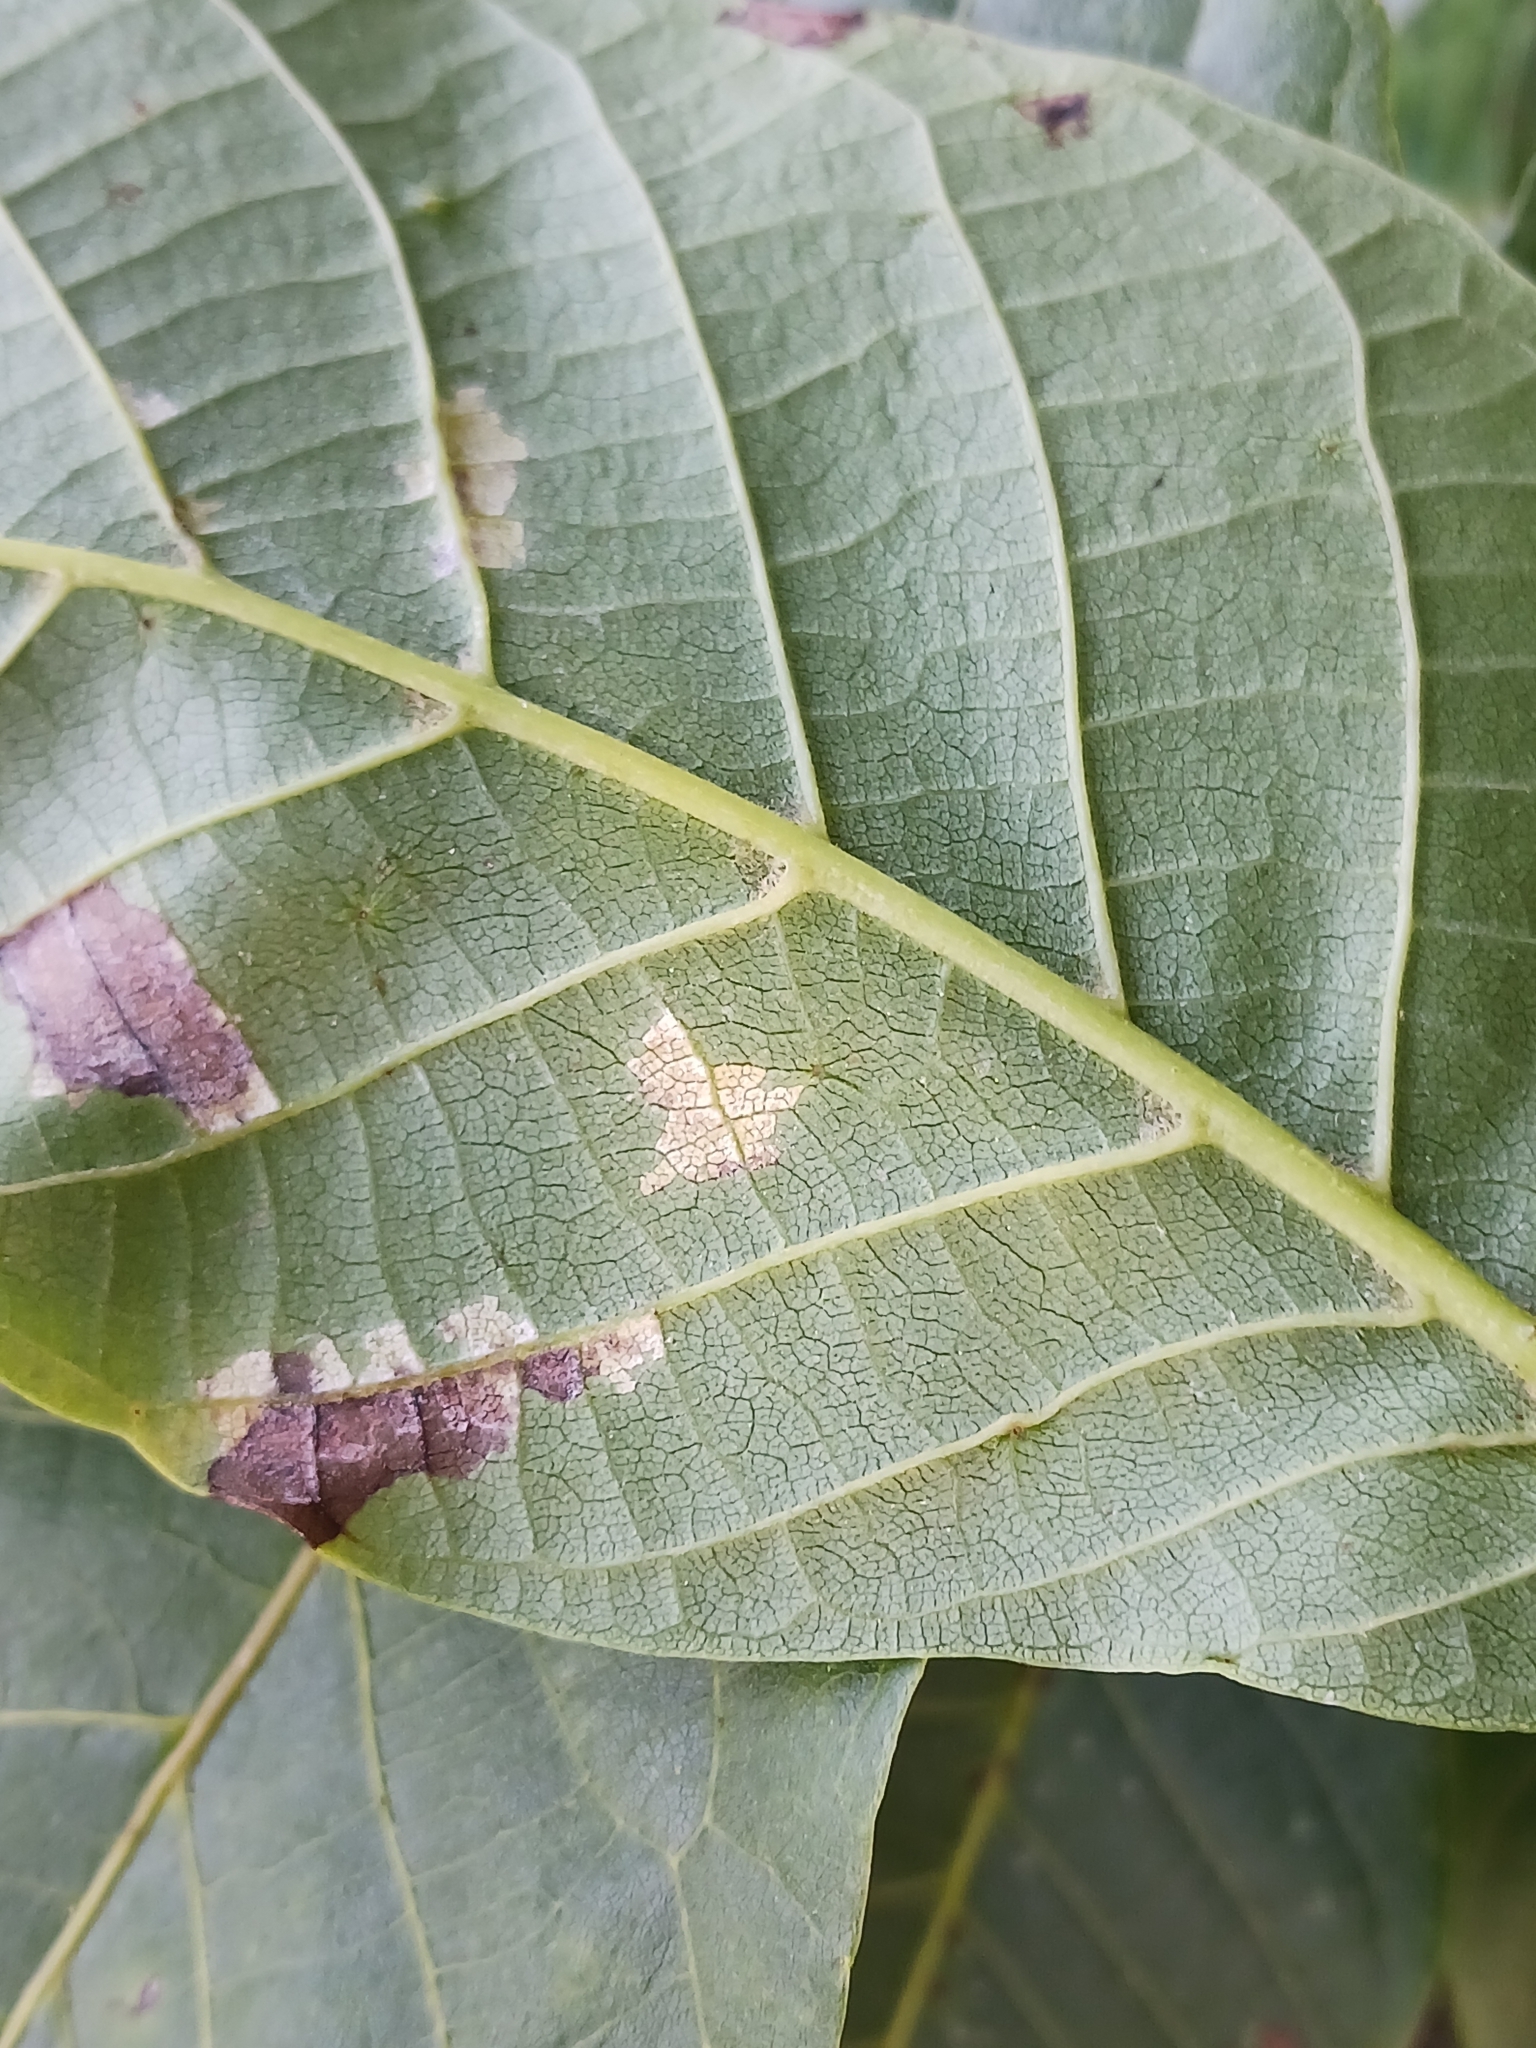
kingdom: Fungi
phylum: Basidiomycota
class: Exobasidiomycetes
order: Microstromatales
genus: Pseudomicrostroma
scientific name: Pseudomicrostroma juglandis
